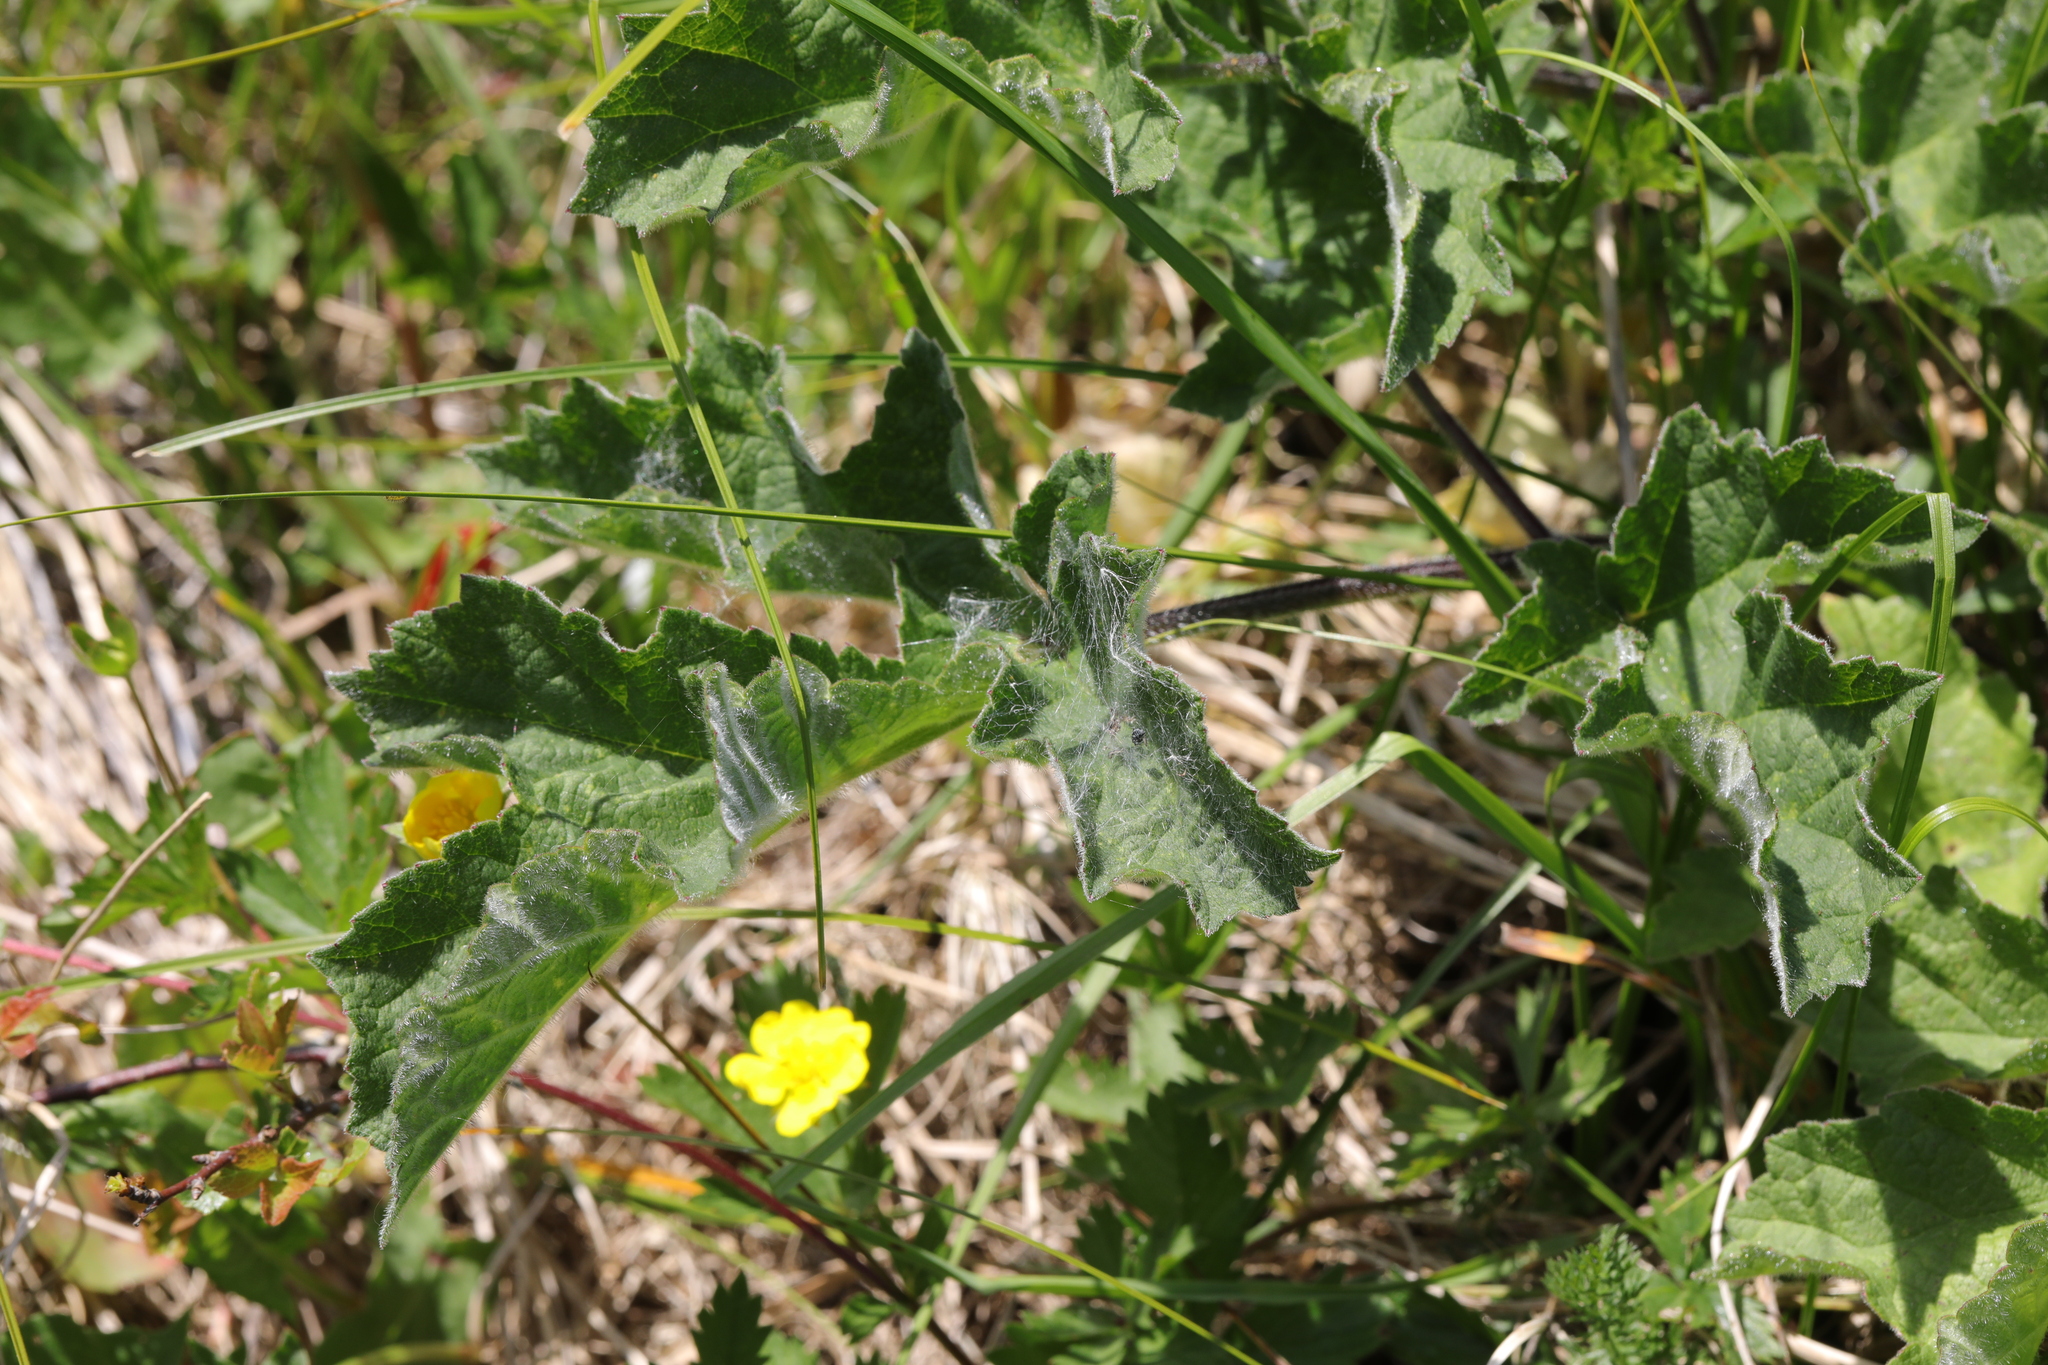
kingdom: Plantae
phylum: Tracheophyta
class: Magnoliopsida
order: Apiales
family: Apiaceae
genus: Heracleum
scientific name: Heracleum sphondylium
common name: Hogweed
